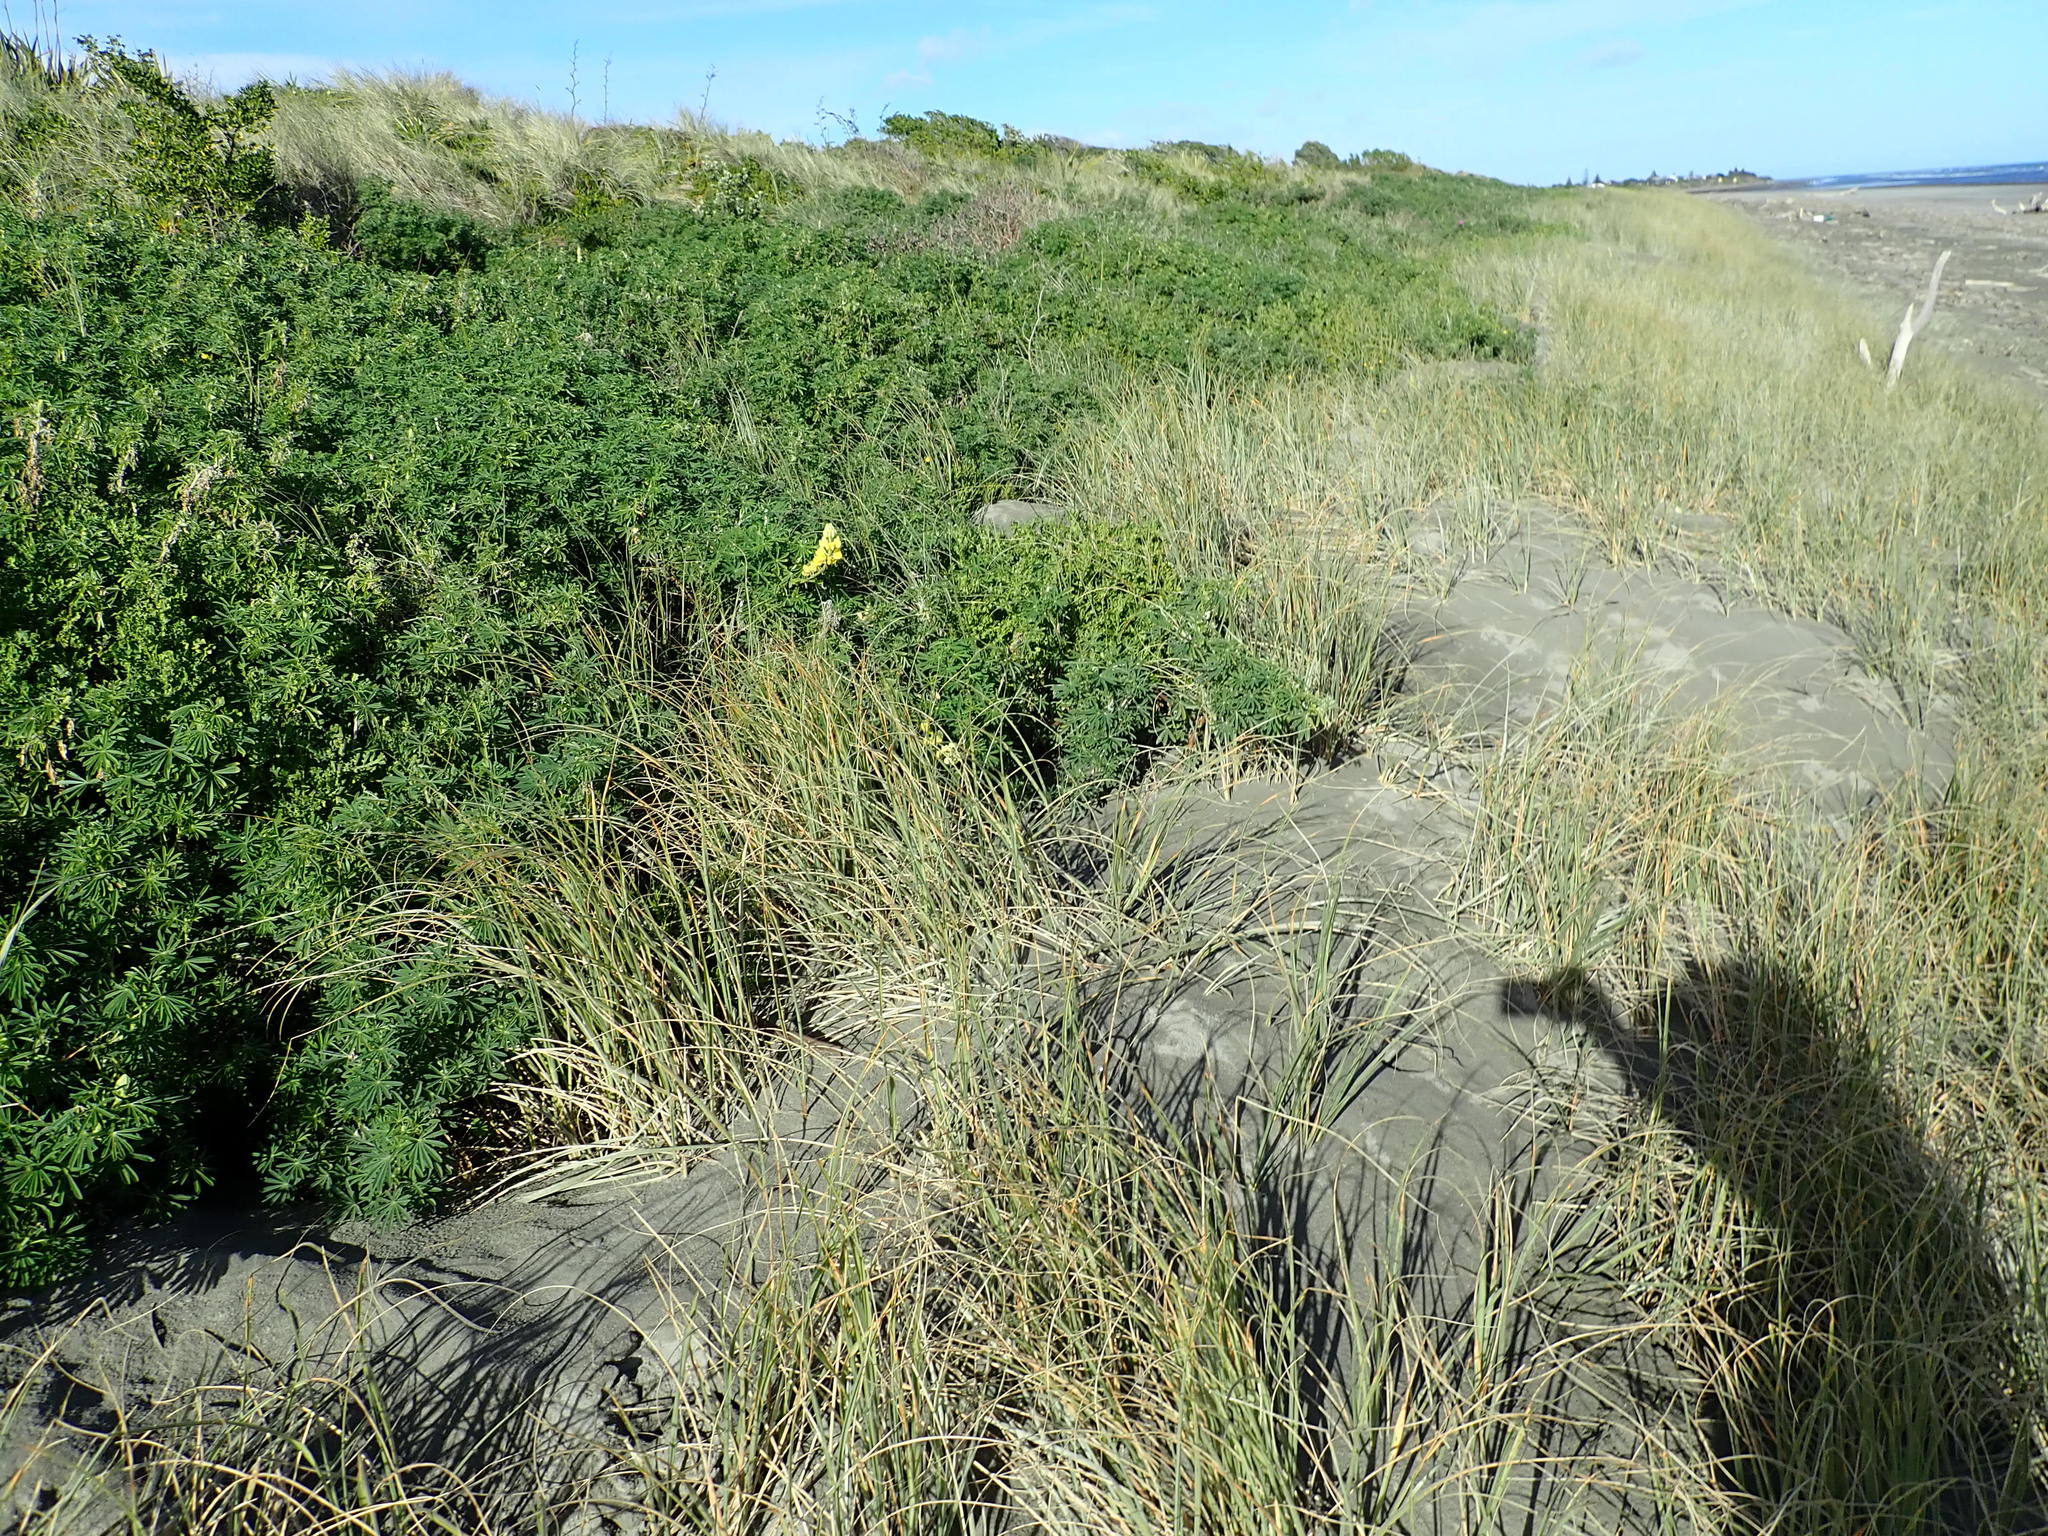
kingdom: Plantae
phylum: Tracheophyta
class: Magnoliopsida
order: Fabales
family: Fabaceae
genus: Lupinus
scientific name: Lupinus arboreus
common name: Yellow bush lupine
